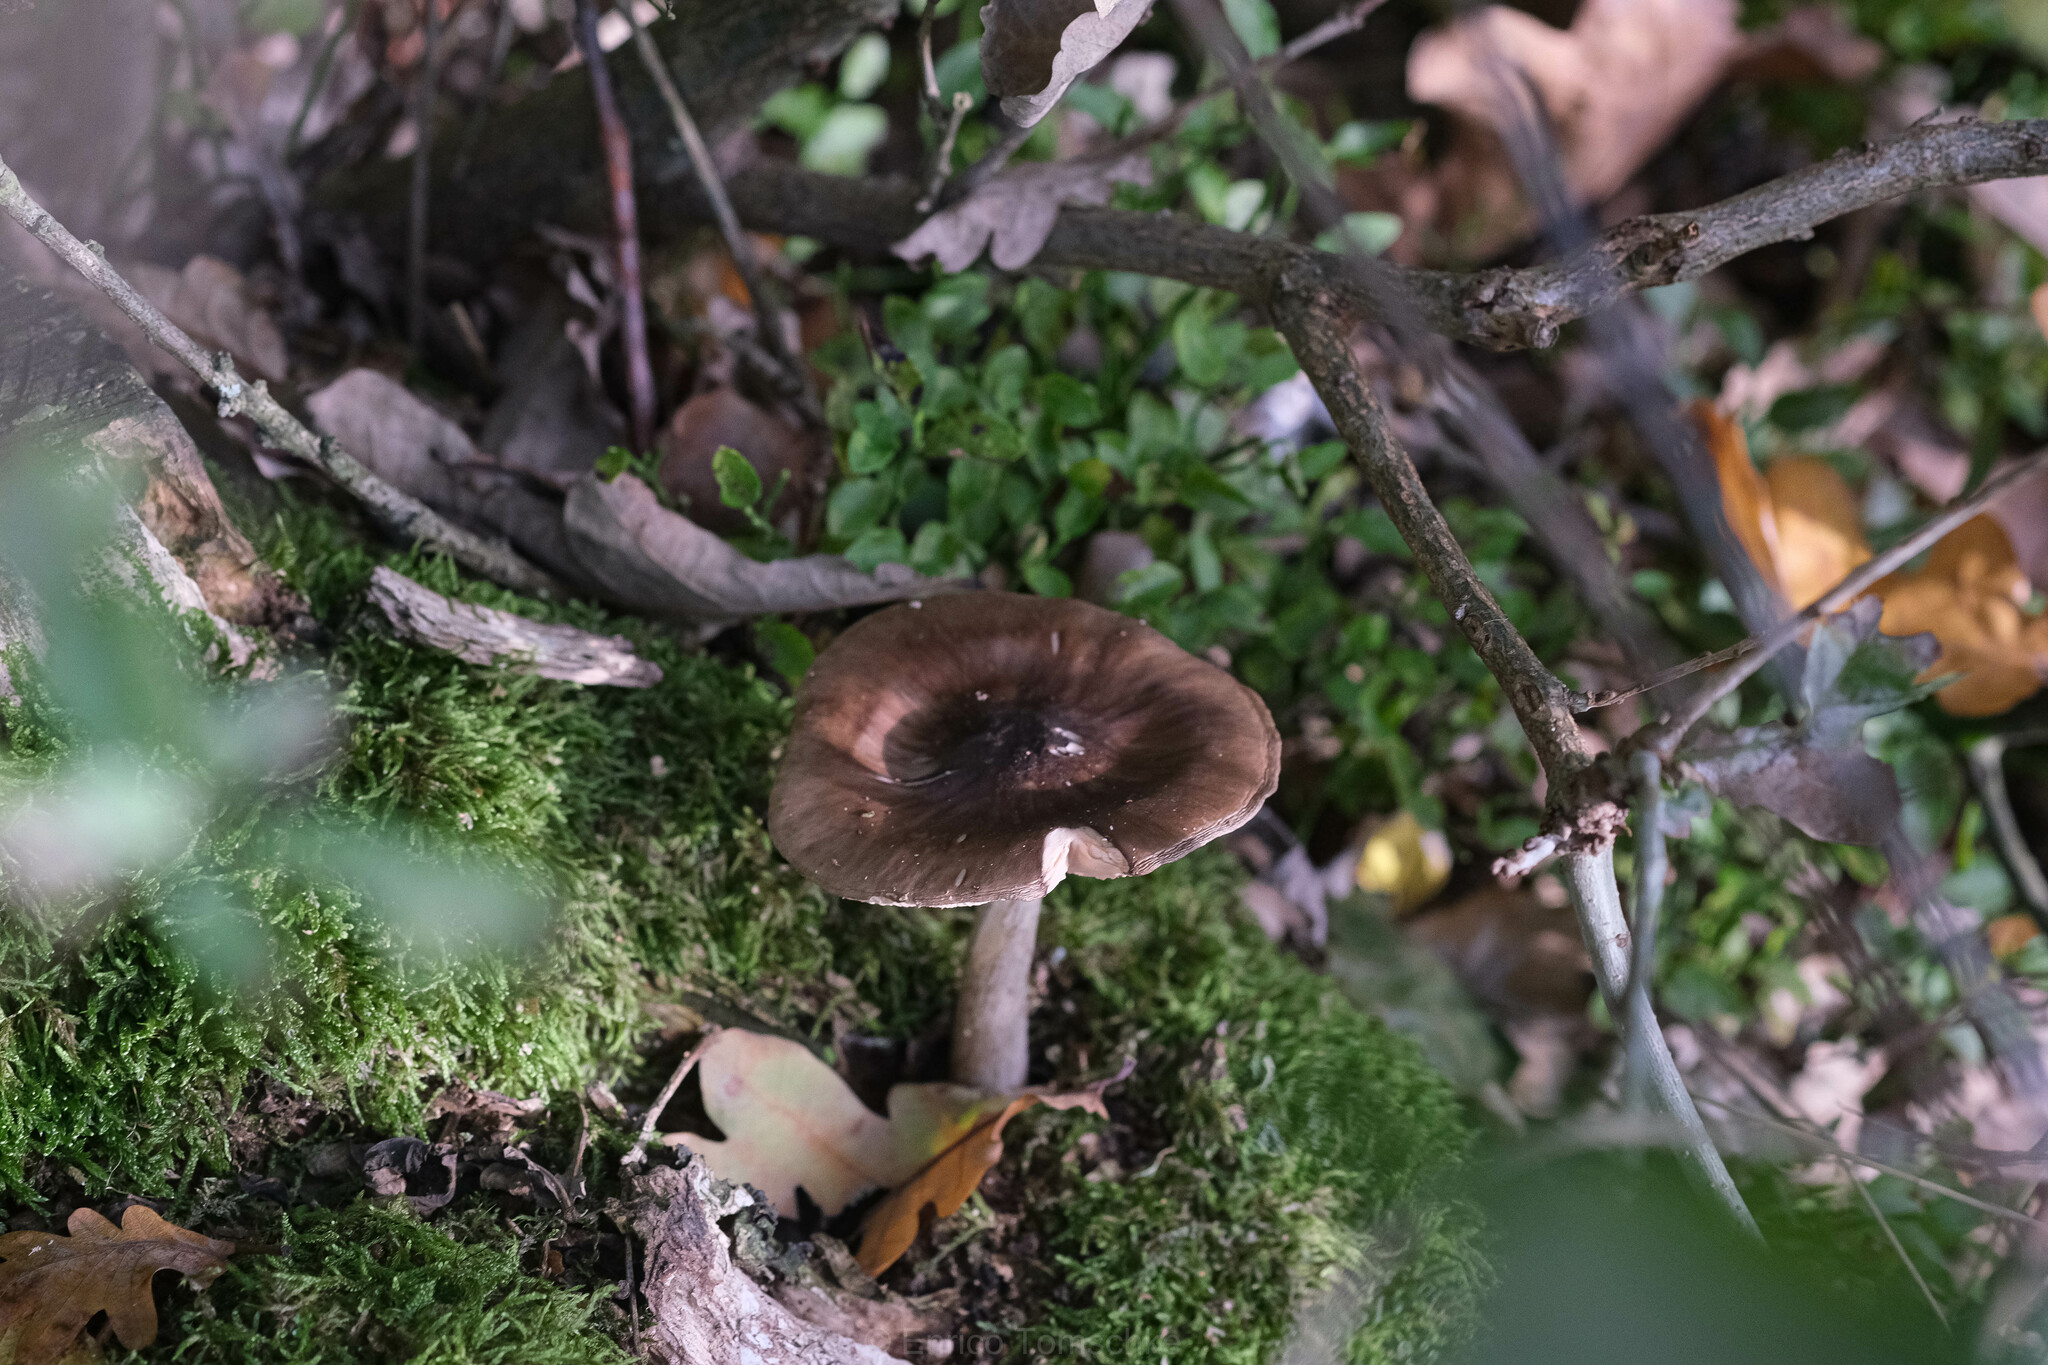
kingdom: Fungi
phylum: Basidiomycota
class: Agaricomycetes
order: Agaricales
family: Pluteaceae
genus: Pluteus
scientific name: Pluteus cervinus
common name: Deer shield
